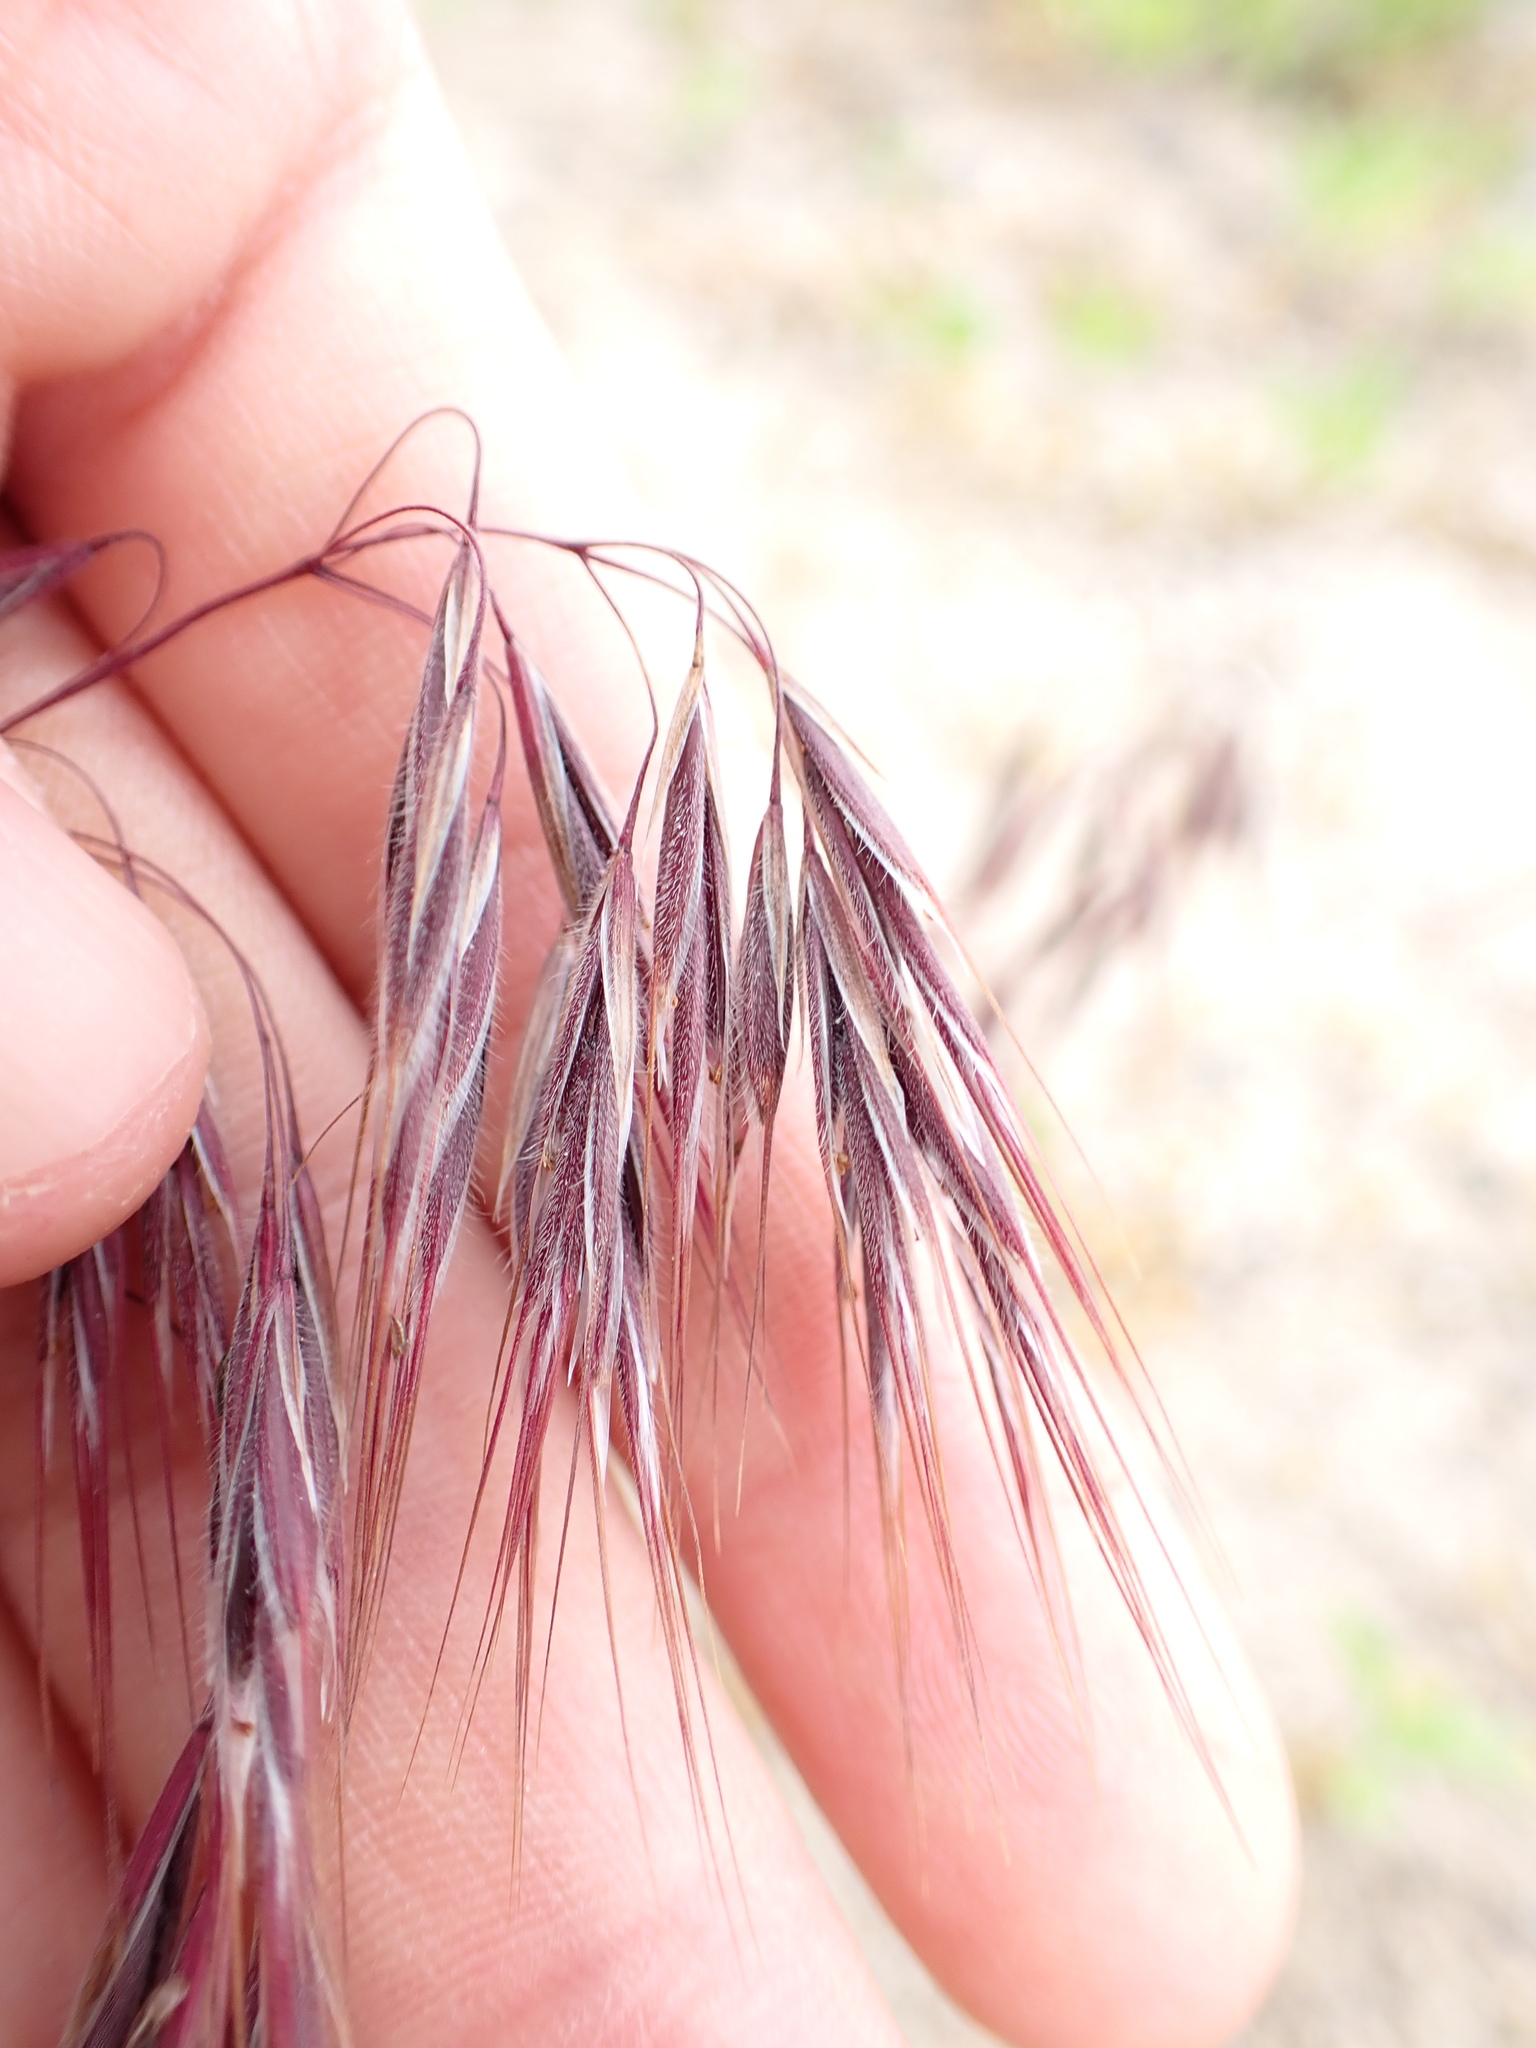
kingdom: Plantae
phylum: Tracheophyta
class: Liliopsida
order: Poales
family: Poaceae
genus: Bromus
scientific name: Bromus tectorum
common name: Cheatgrass
